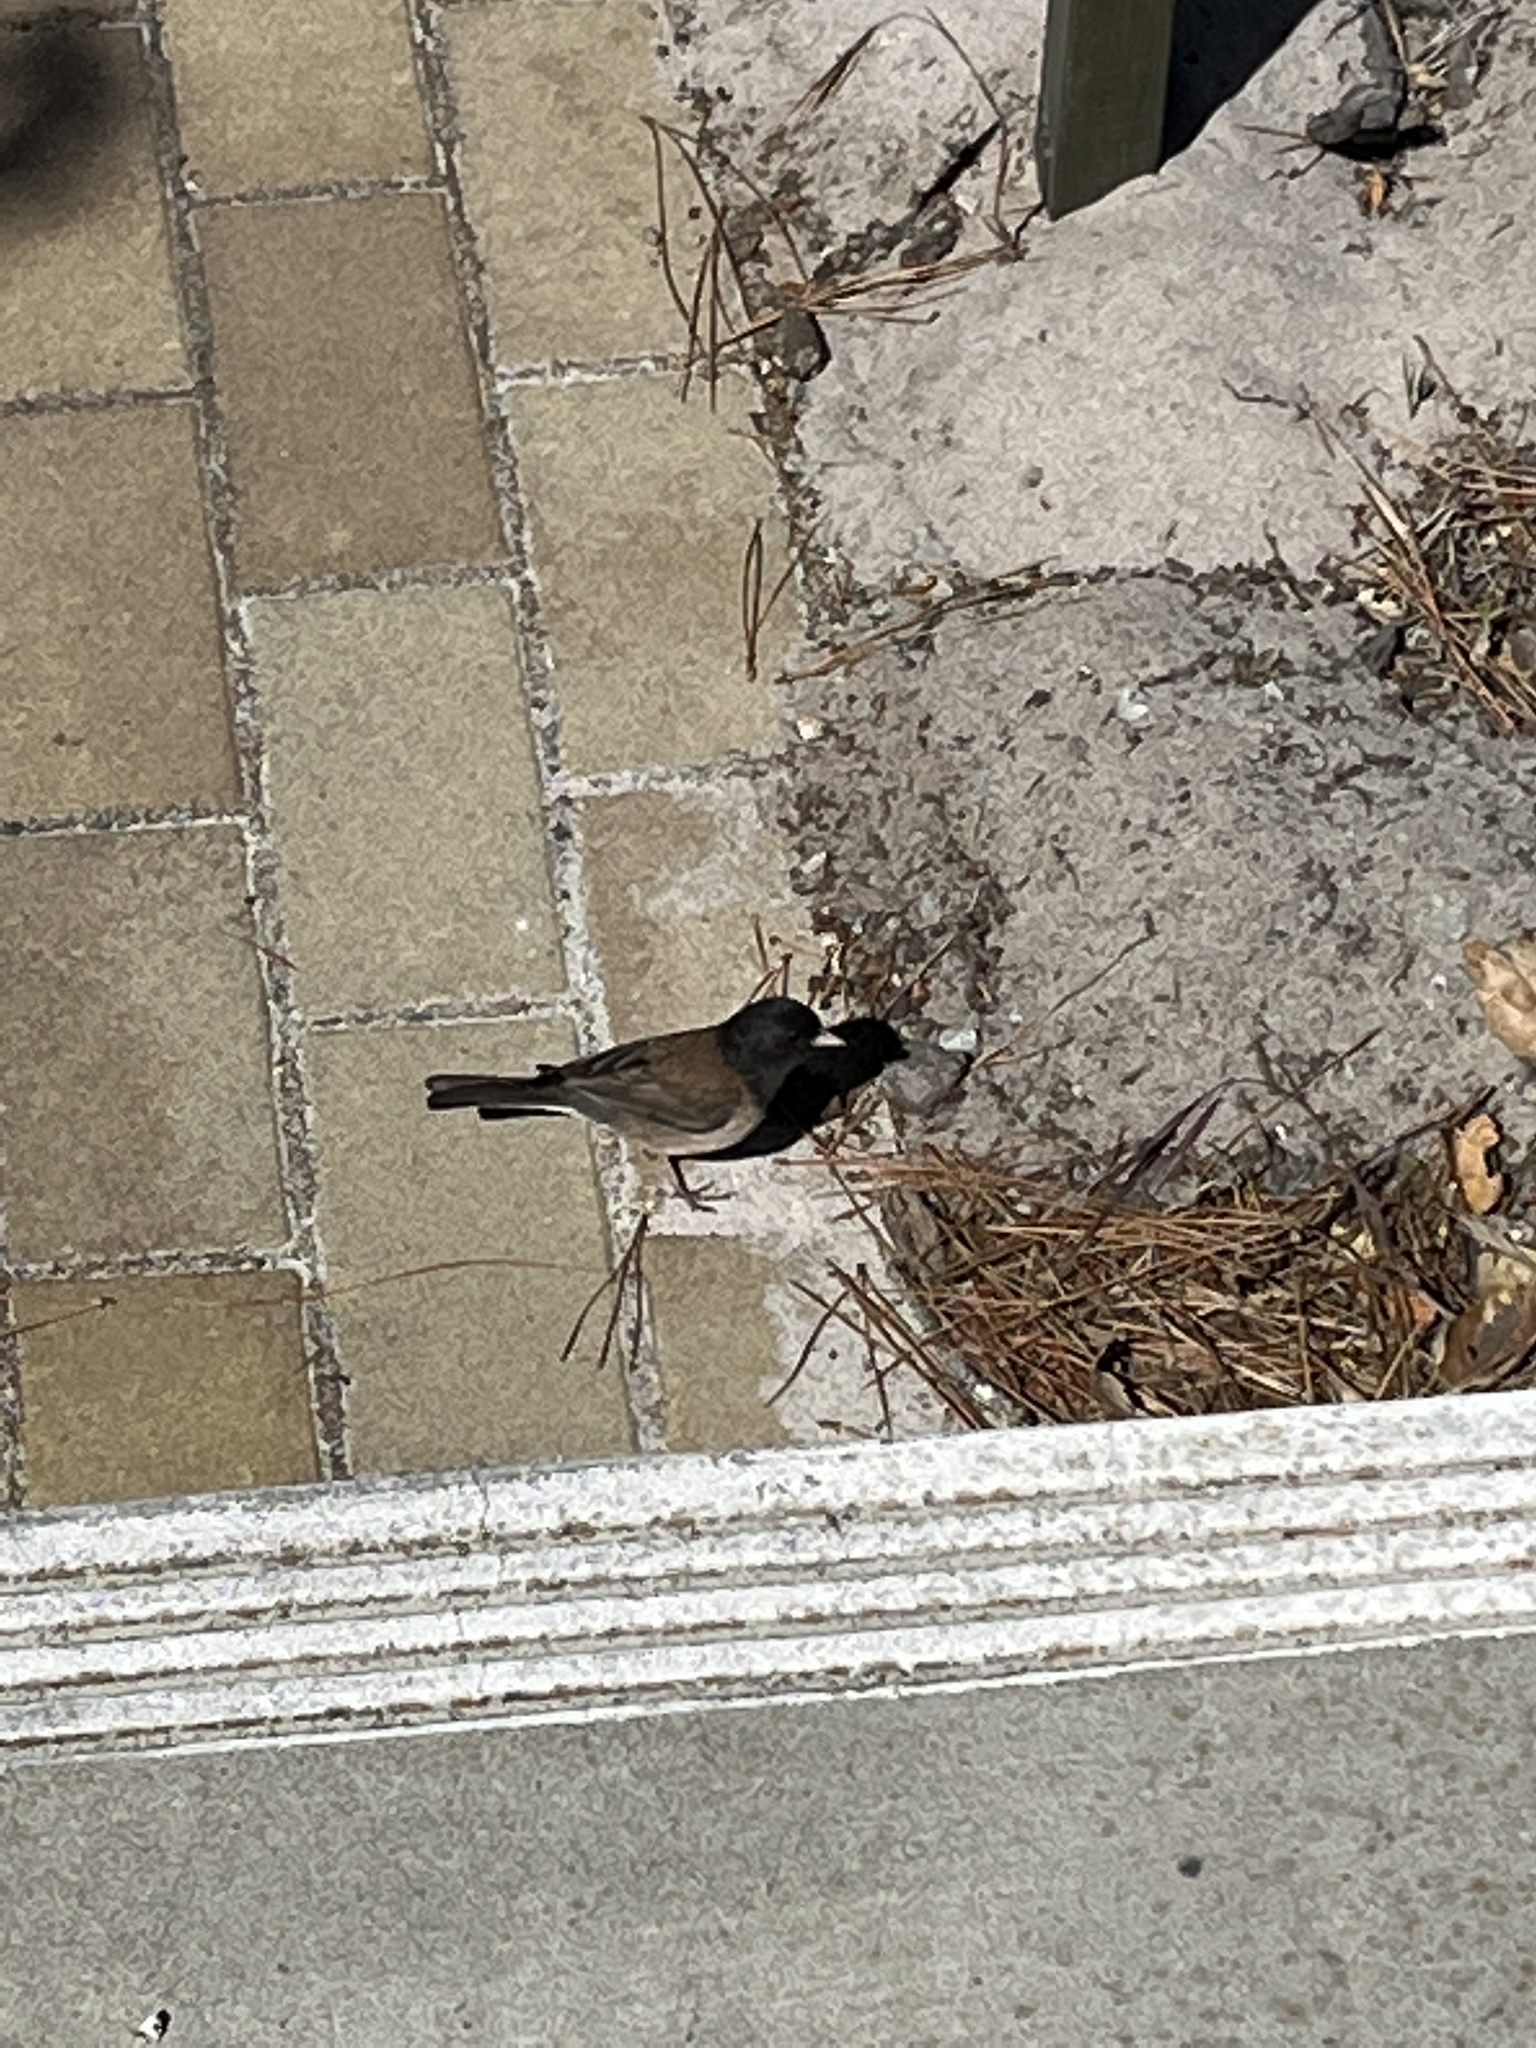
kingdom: Animalia
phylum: Chordata
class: Aves
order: Passeriformes
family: Passerellidae
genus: Junco
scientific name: Junco hyemalis
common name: Dark-eyed junco
